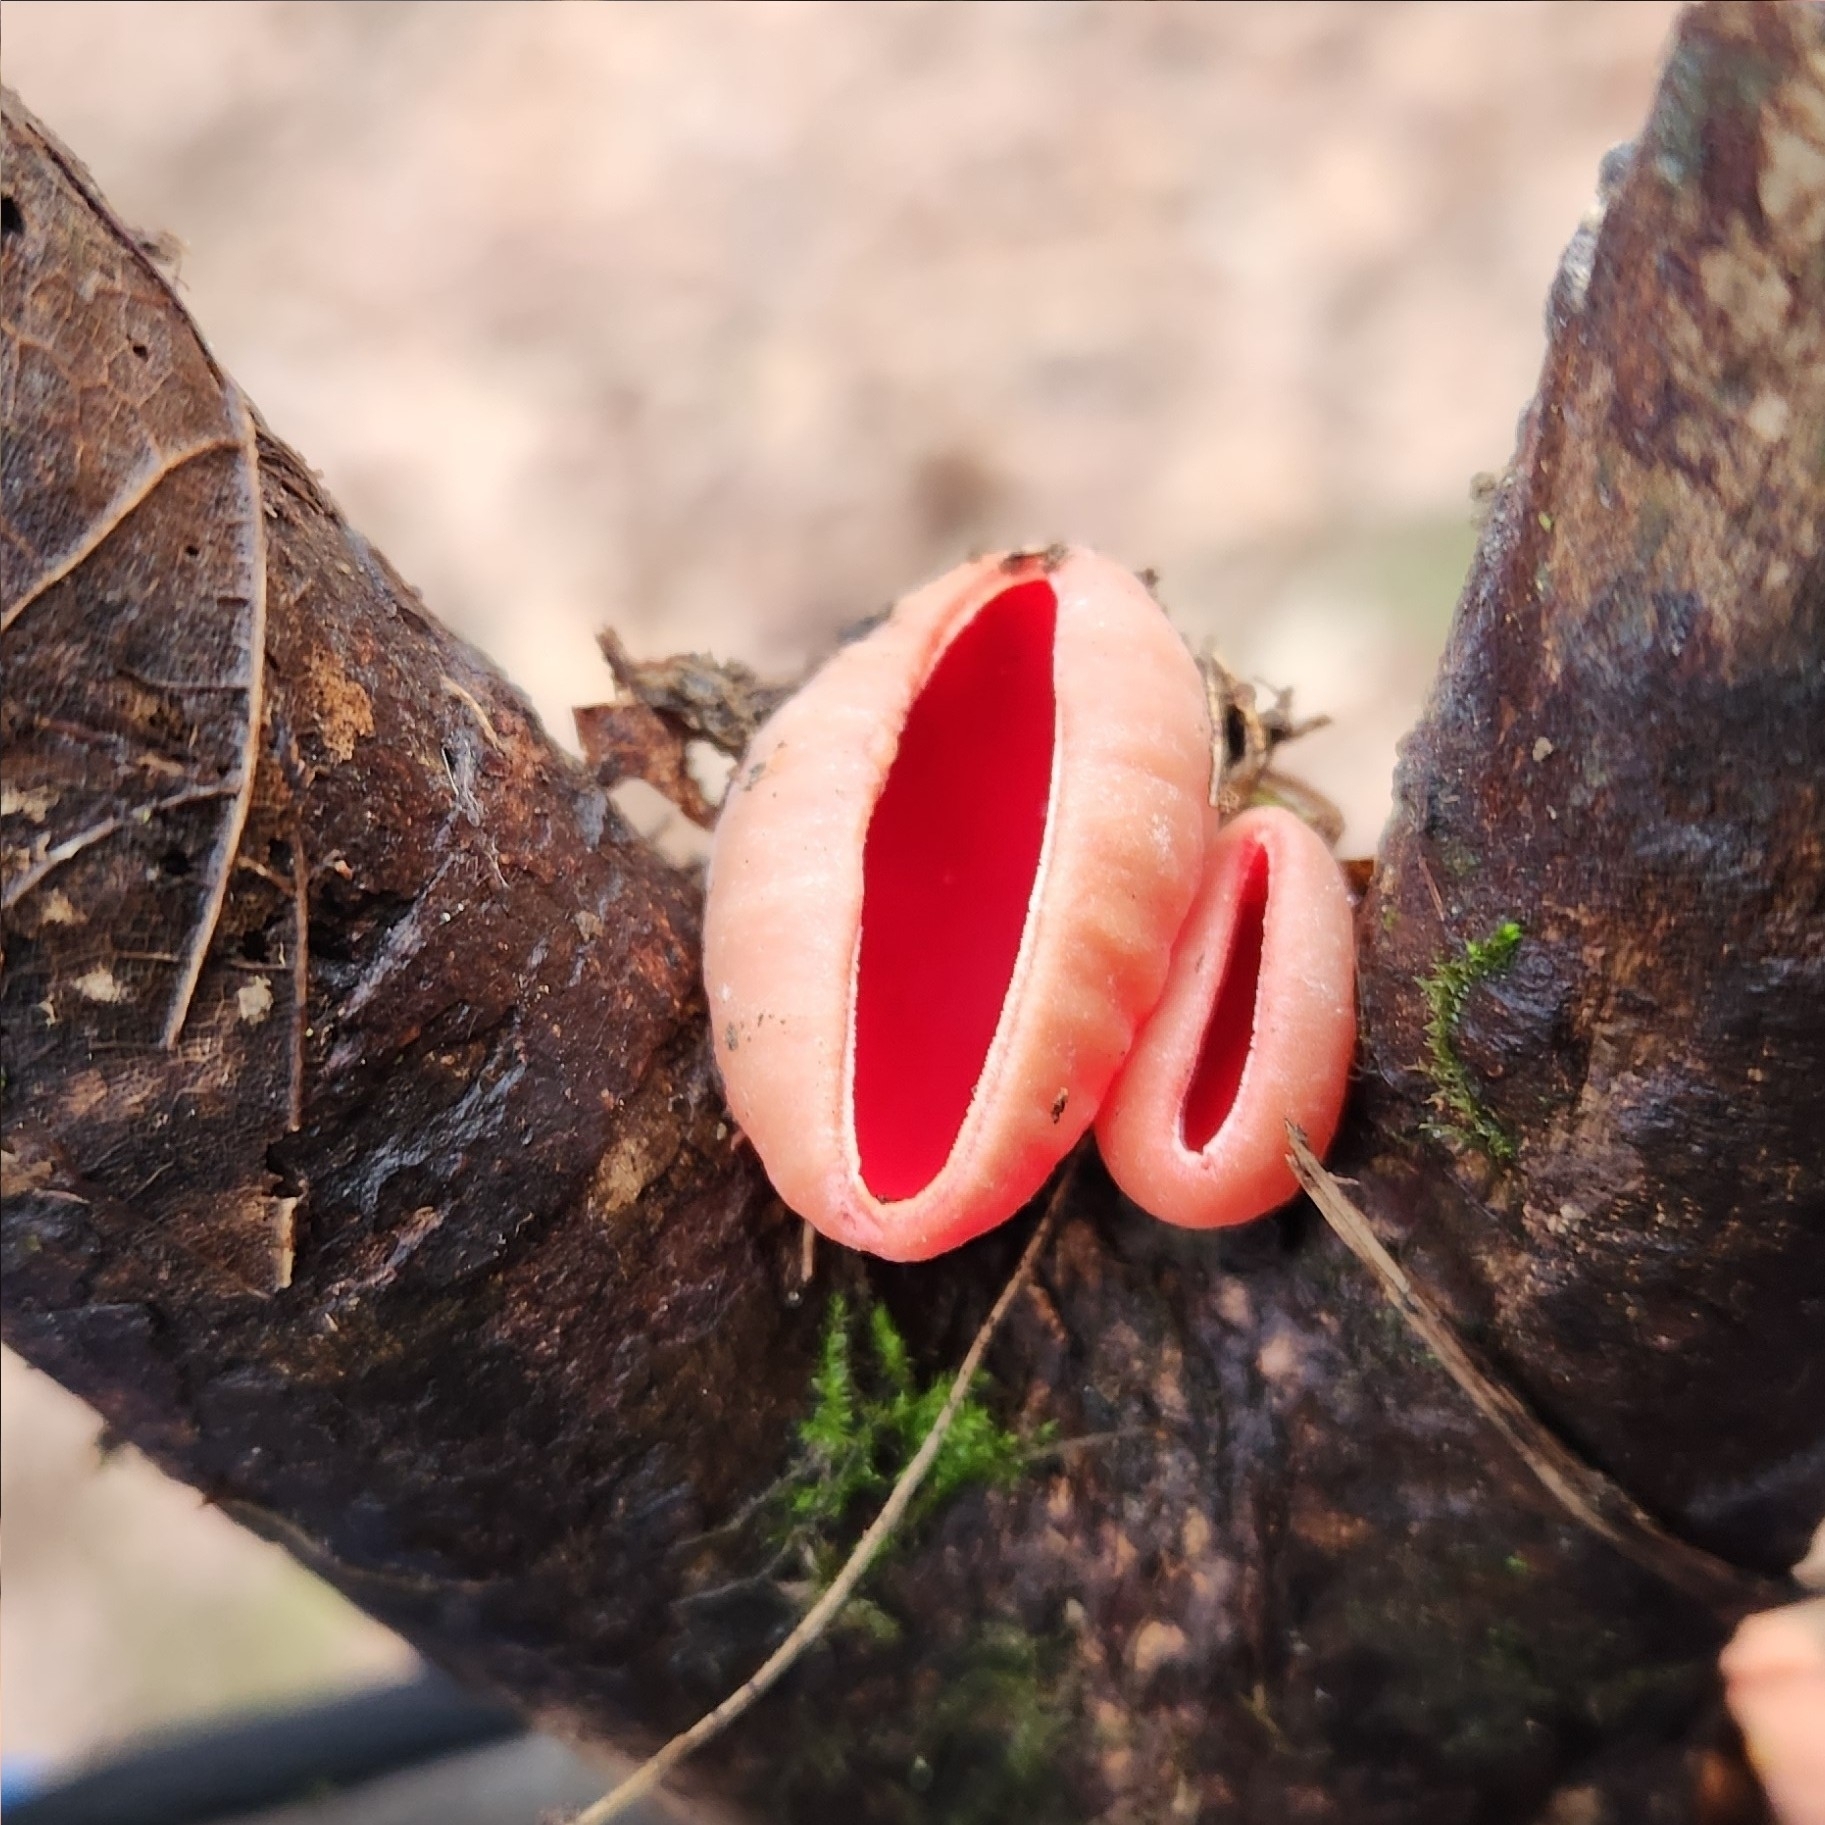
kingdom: Fungi
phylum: Ascomycota
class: Pezizomycetes
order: Pezizales
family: Sarcoscyphaceae
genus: Sarcoscypha
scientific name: Sarcoscypha austriaca
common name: Scarlet elfcup
